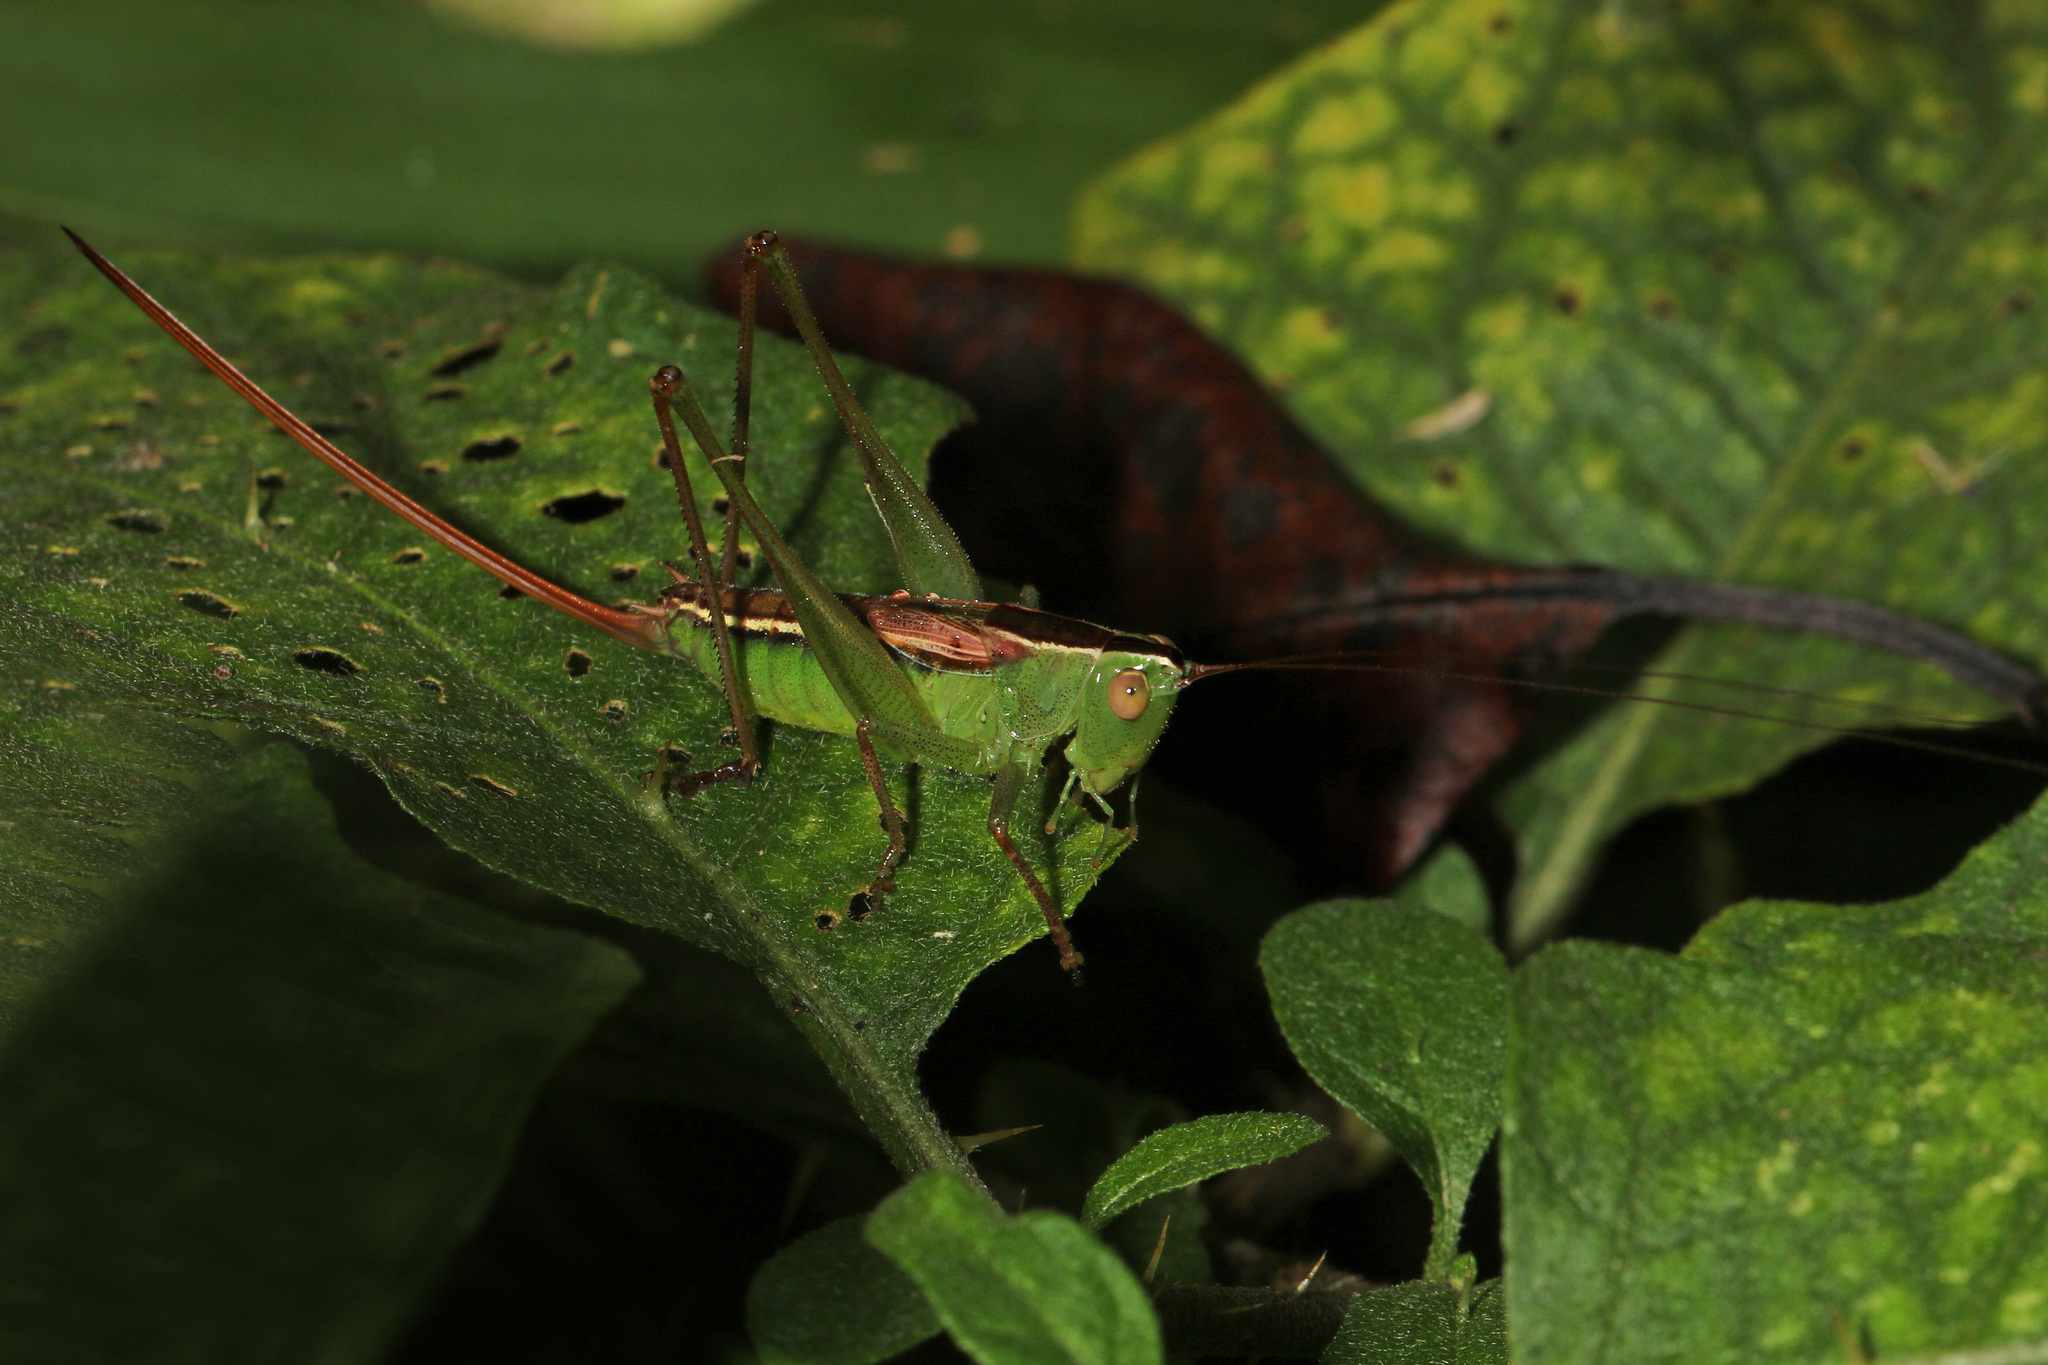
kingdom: Animalia
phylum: Arthropoda
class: Insecta
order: Orthoptera
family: Tettigoniidae
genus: Conocephalus
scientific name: Conocephalus strictus
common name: Straight-lanced katydid
